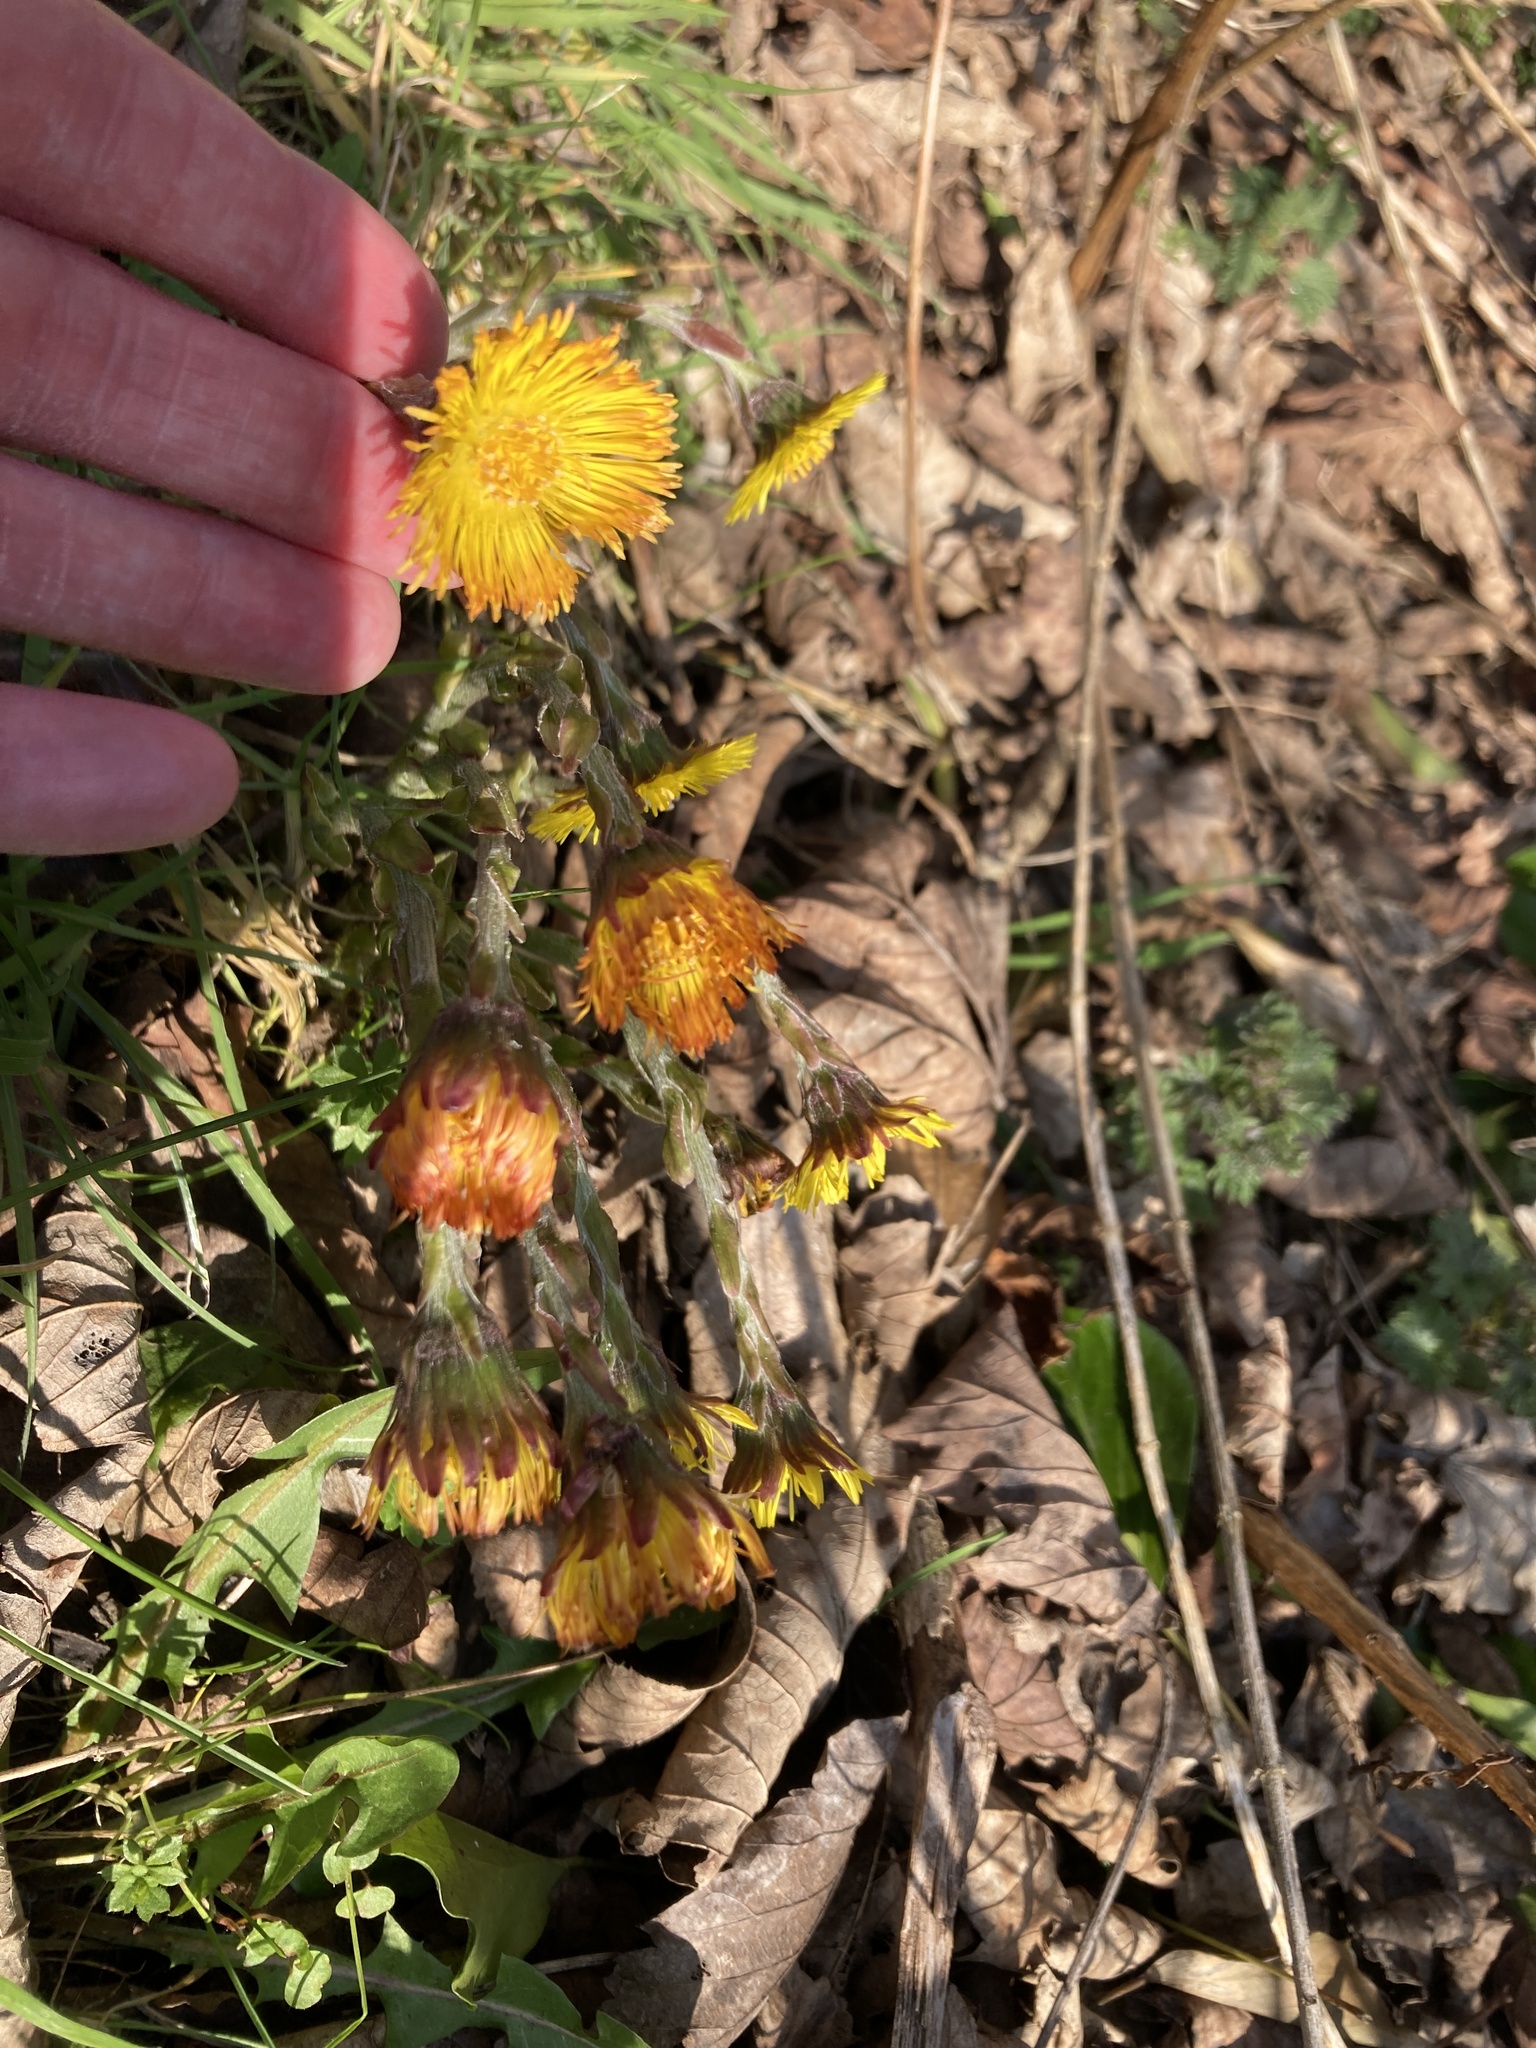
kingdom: Plantae
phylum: Tracheophyta
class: Magnoliopsida
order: Asterales
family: Asteraceae
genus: Tussilago
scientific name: Tussilago farfara
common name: Coltsfoot
